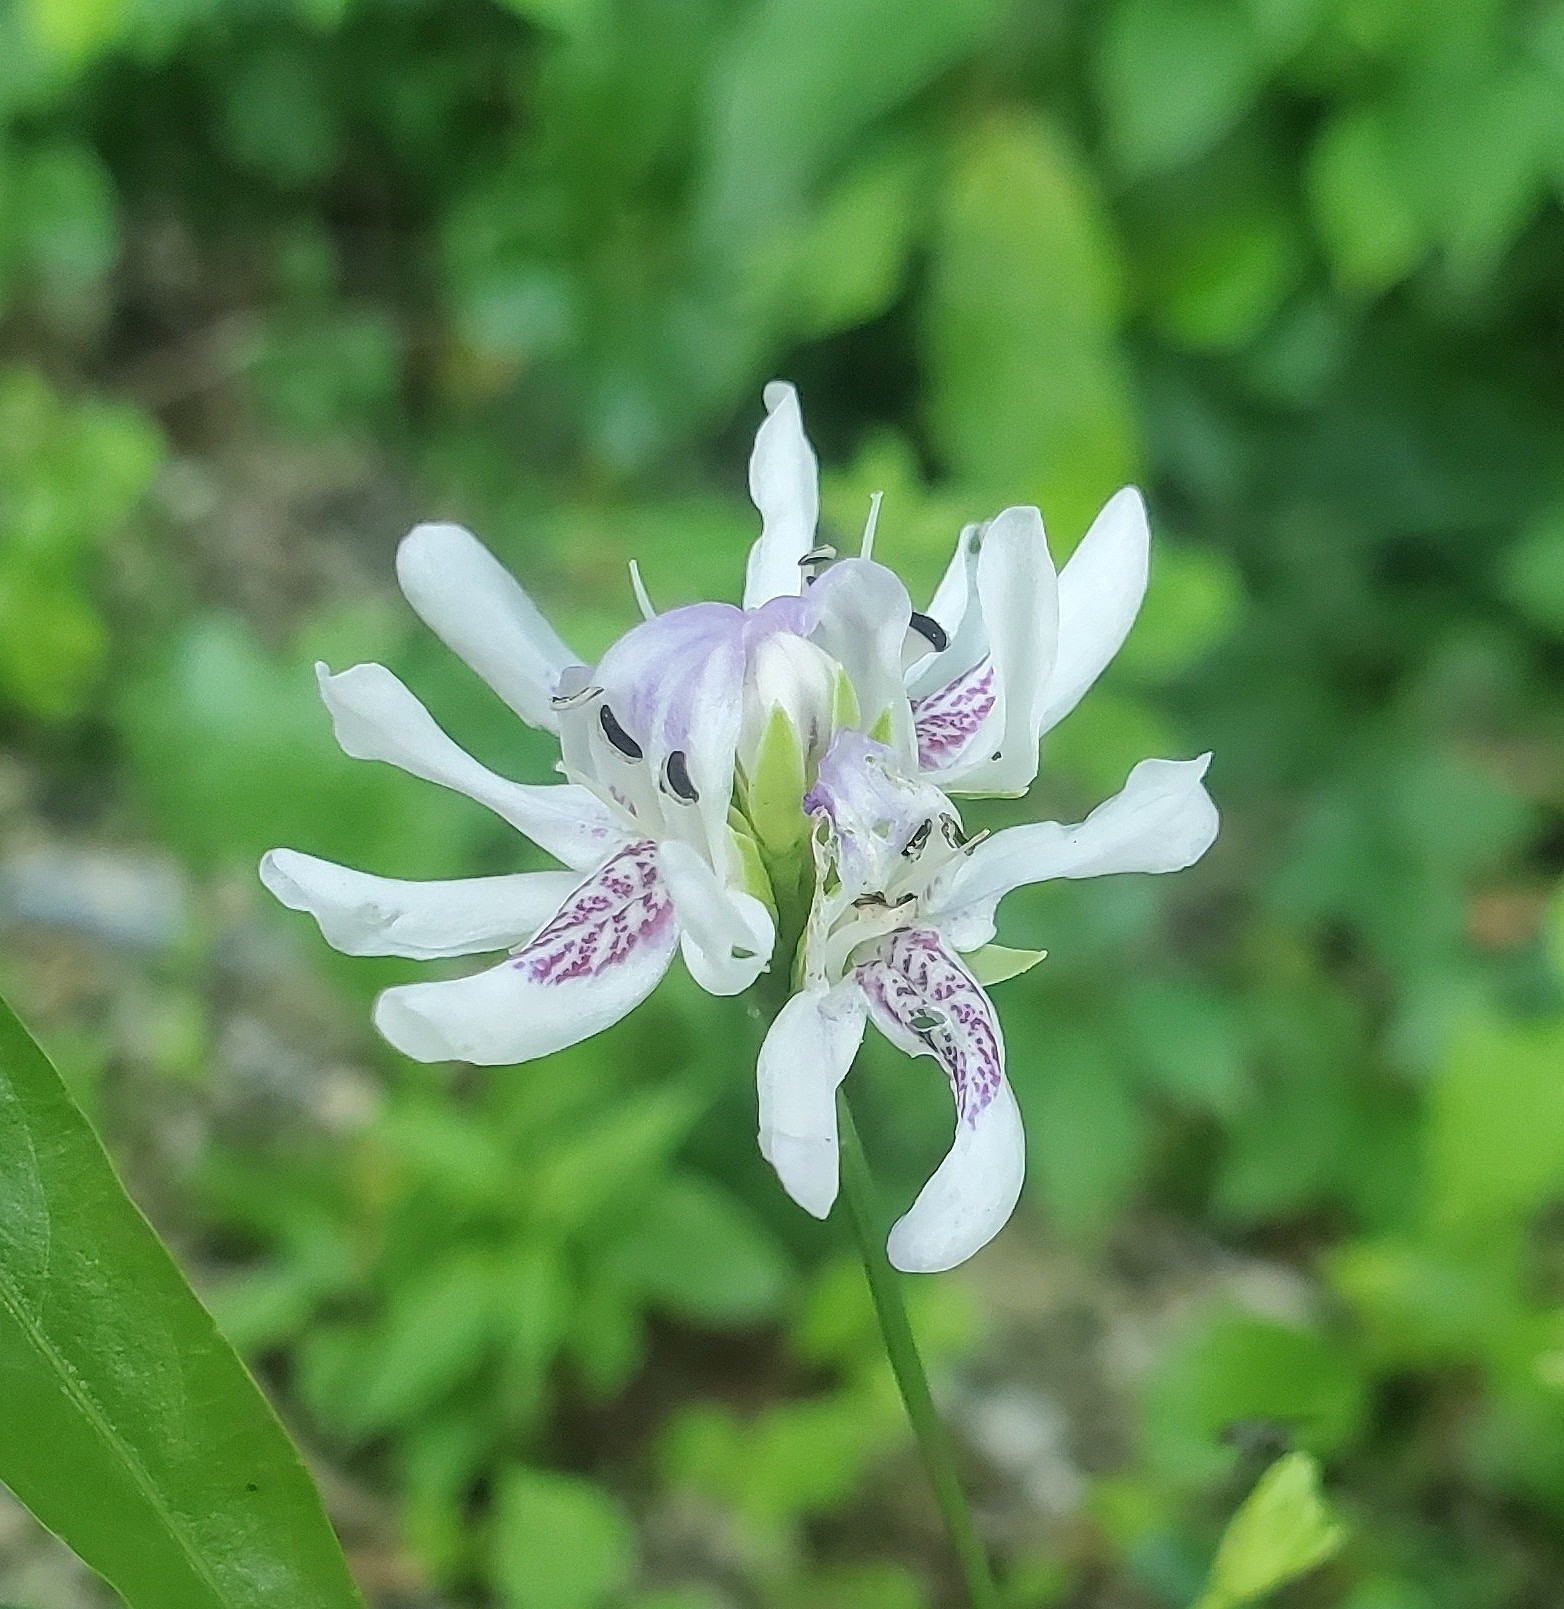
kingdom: Plantae
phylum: Tracheophyta
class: Magnoliopsida
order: Lamiales
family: Acanthaceae
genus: Dianthera
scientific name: Dianthera americana
